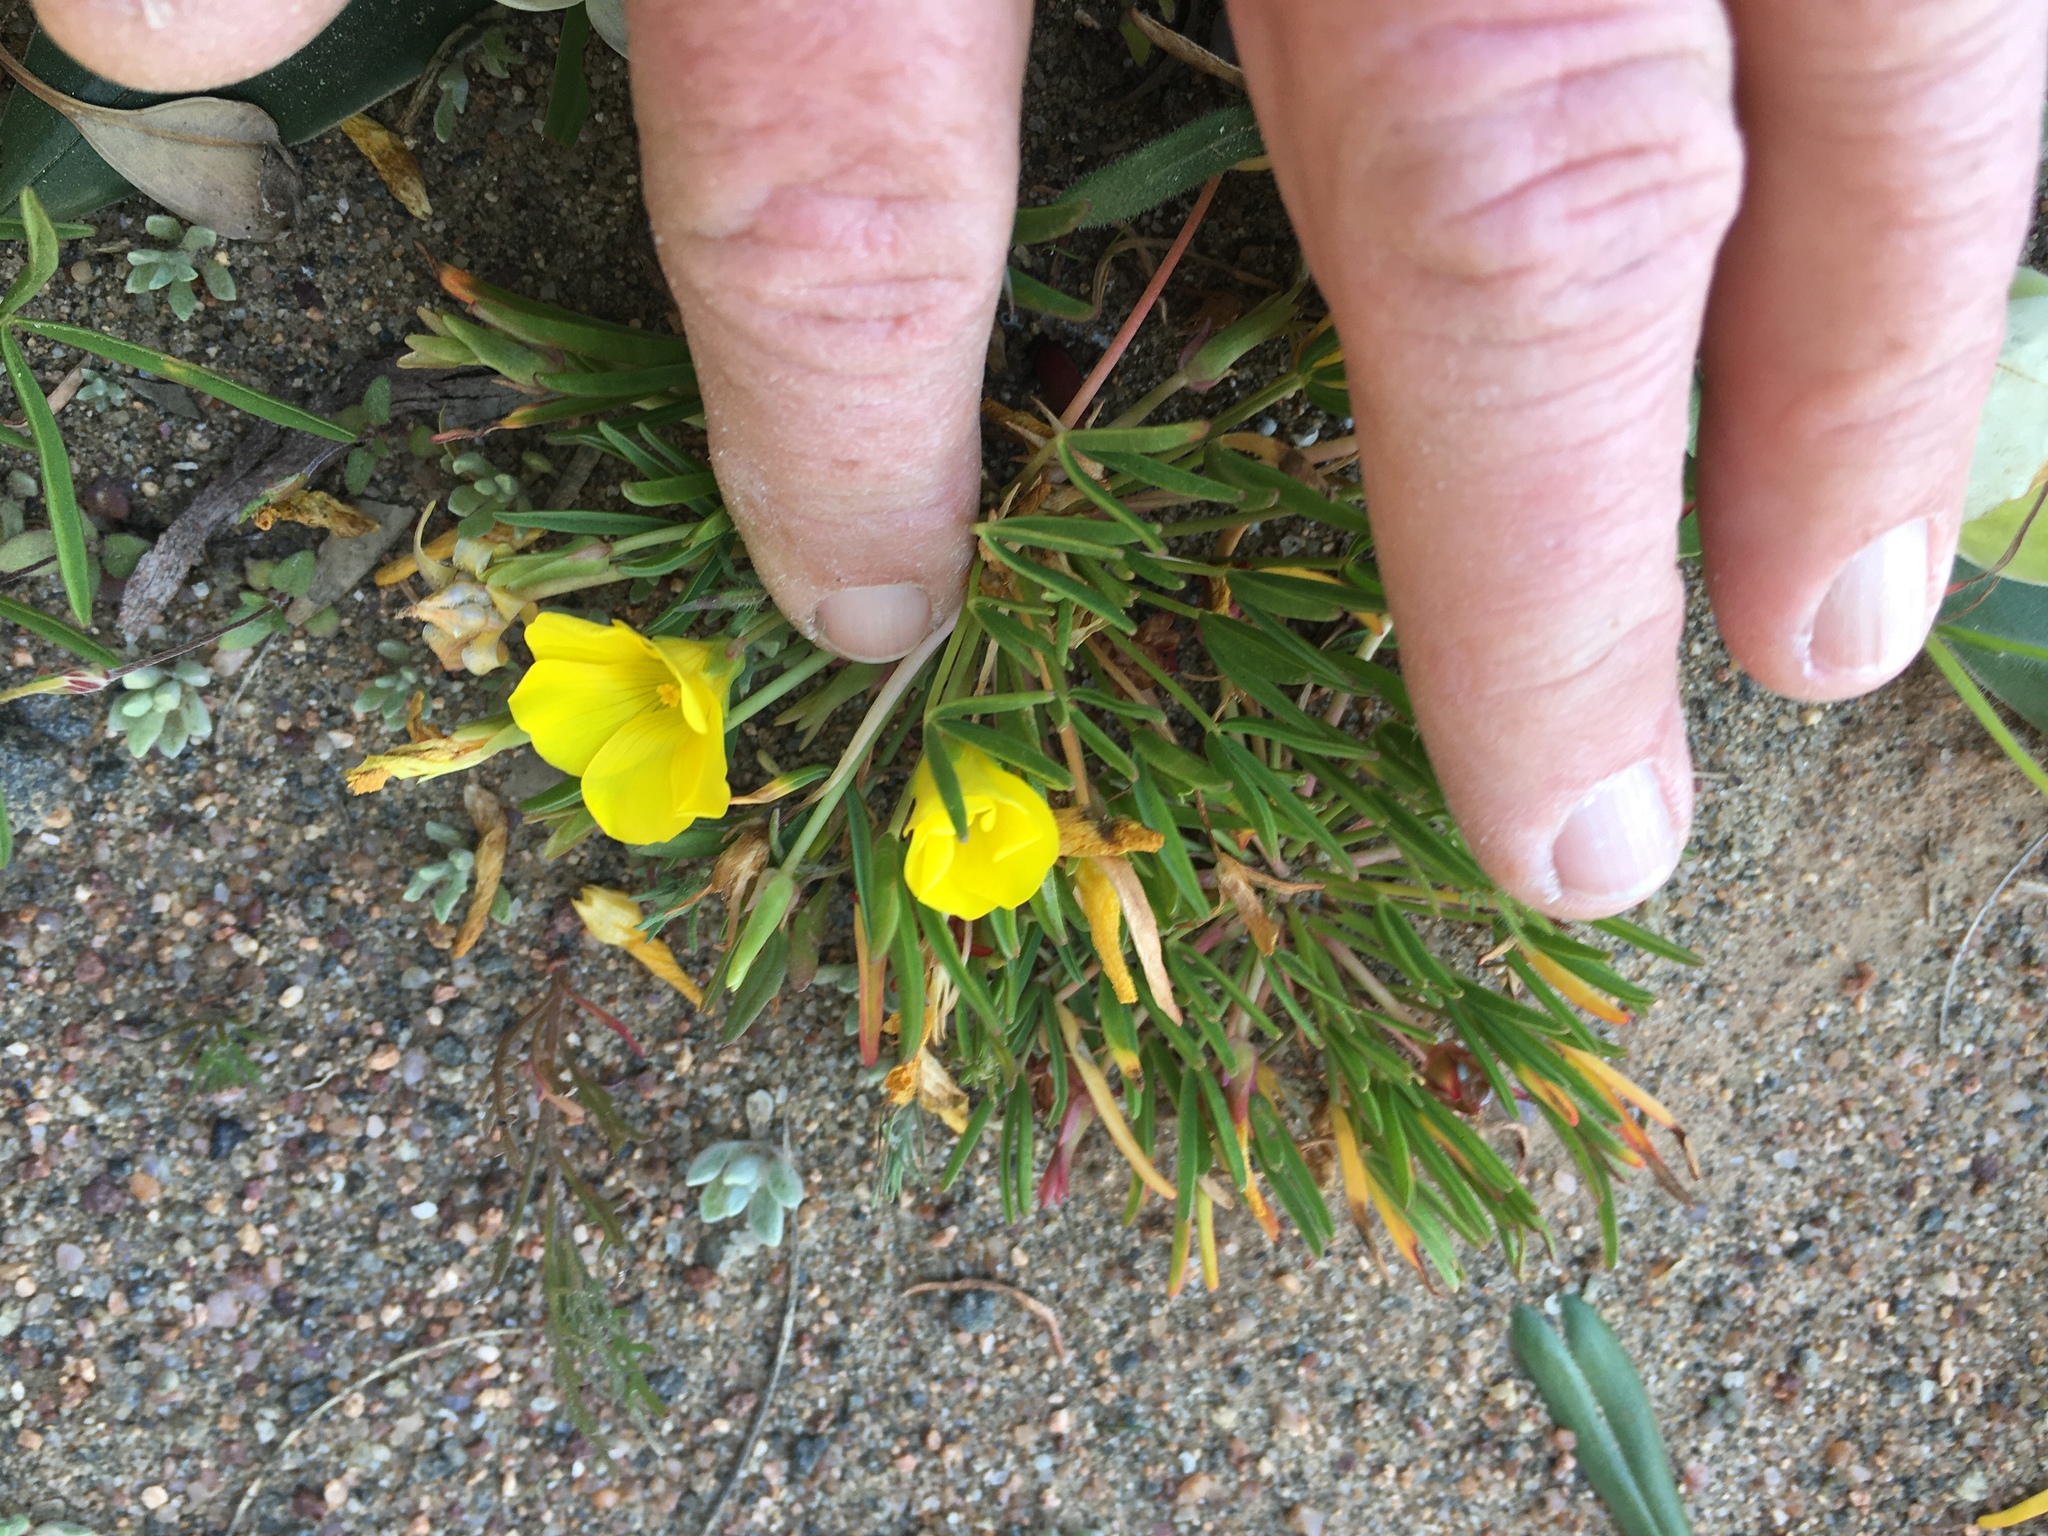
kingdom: Plantae
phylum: Tracheophyta
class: Magnoliopsida
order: Oxalidales
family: Oxalidaceae
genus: Oxalis
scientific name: Oxalis namaquana
